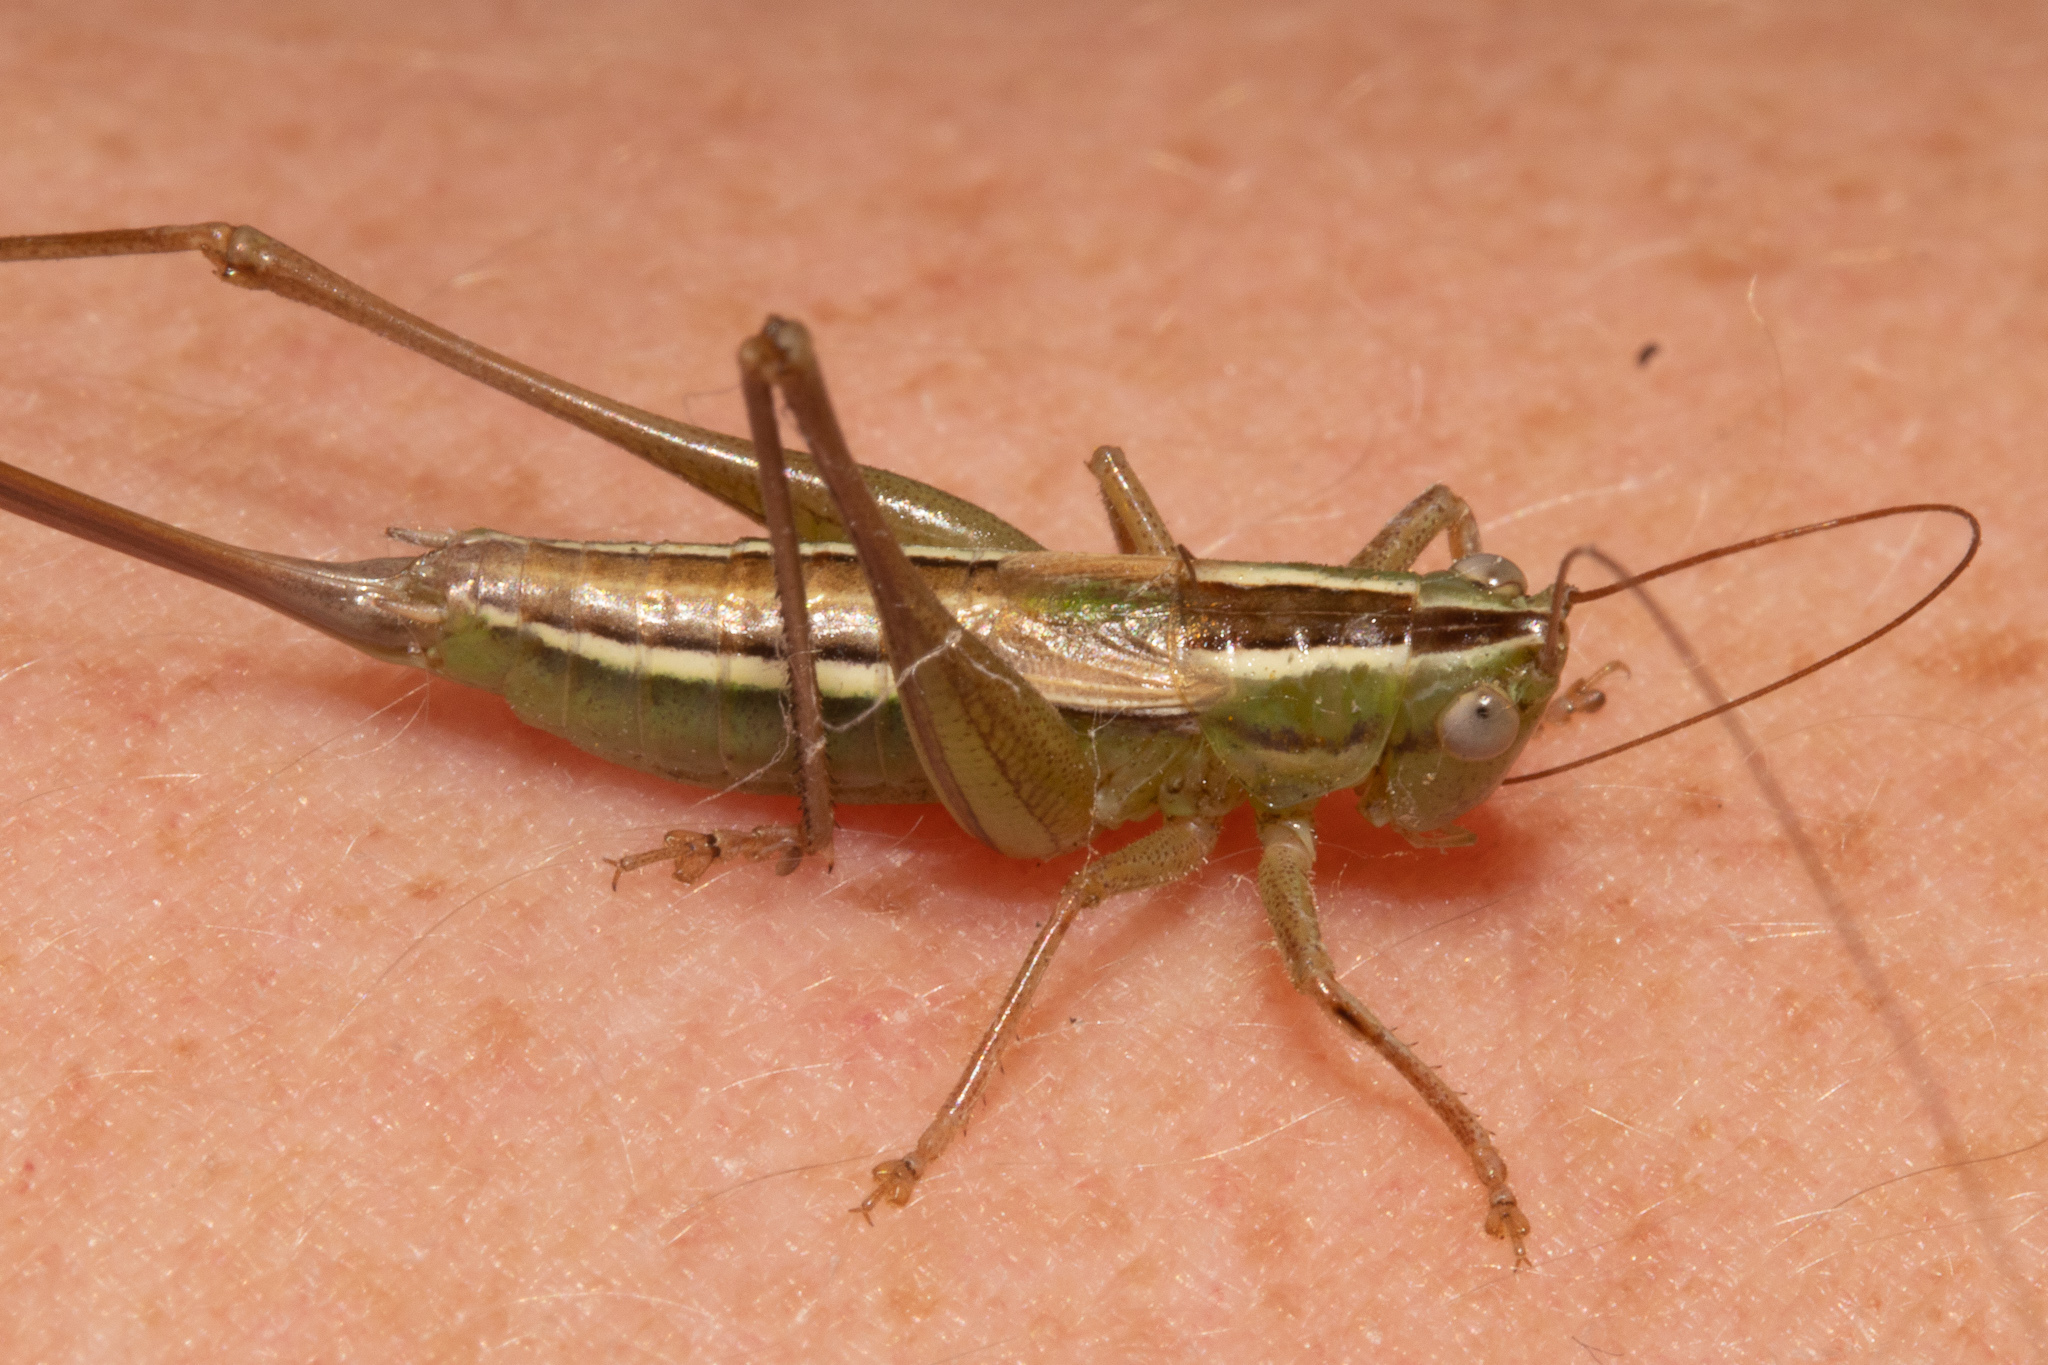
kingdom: Animalia
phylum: Arthropoda
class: Insecta
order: Orthoptera
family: Tettigoniidae
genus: Conocephalus
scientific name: Conocephalus bilineatus
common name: Small meadow katydid
